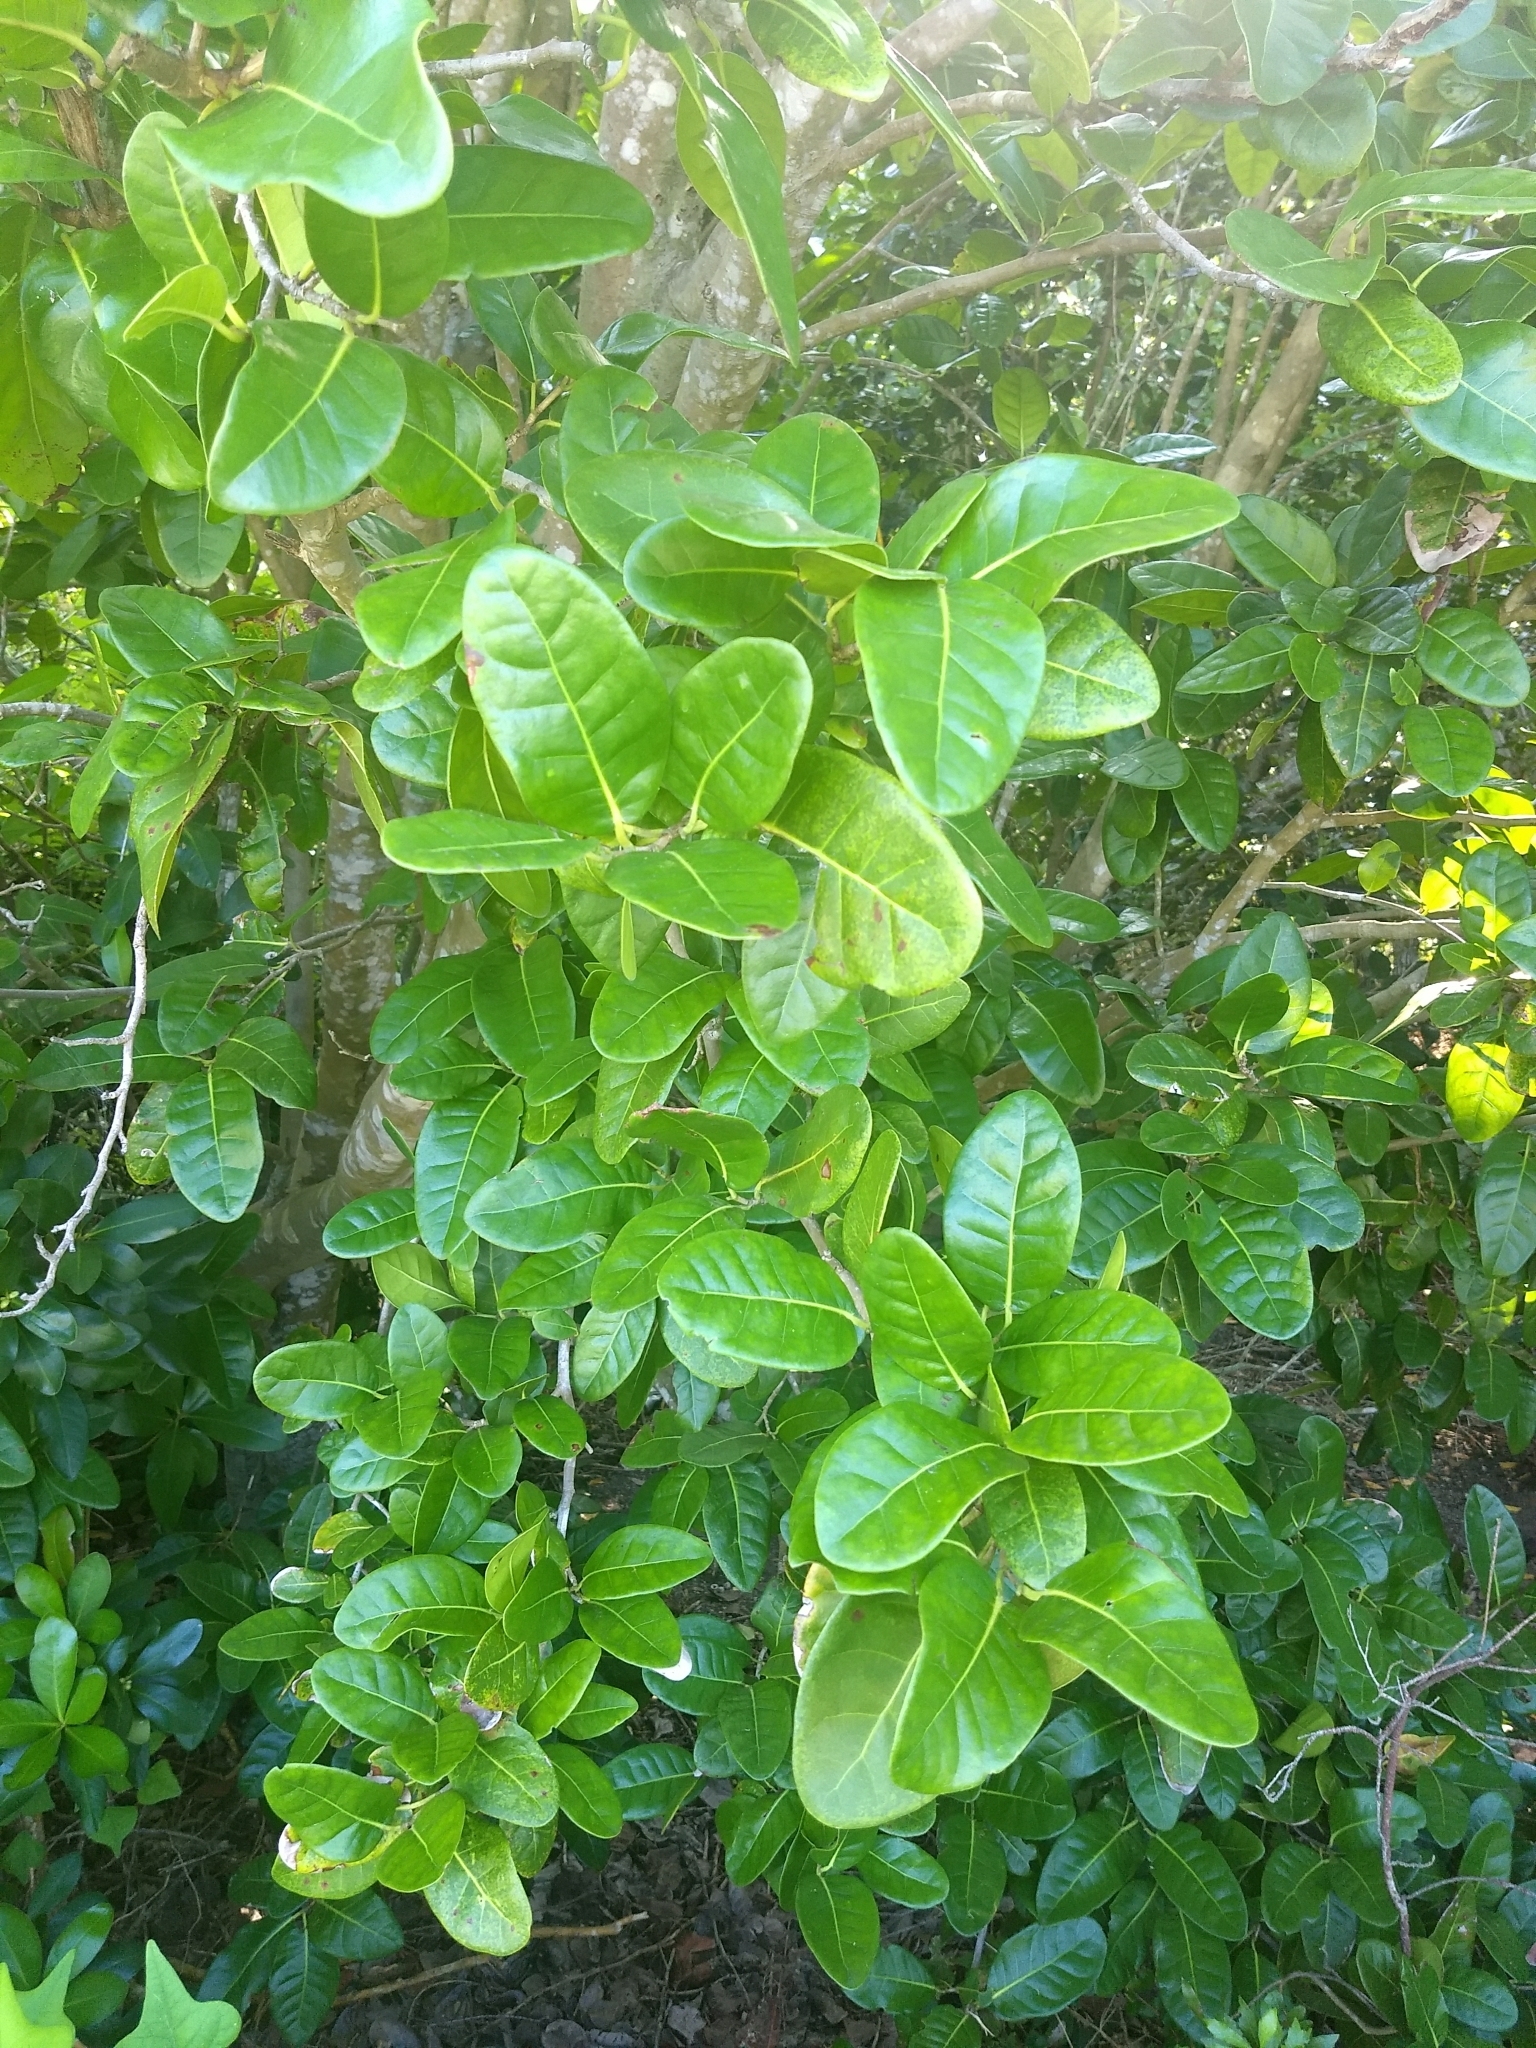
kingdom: Plantae
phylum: Tracheophyta
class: Magnoliopsida
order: Caryophyllales
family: Polygonaceae
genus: Coccoloba
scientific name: Coccoloba diversifolia
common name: Pigeon-plum
